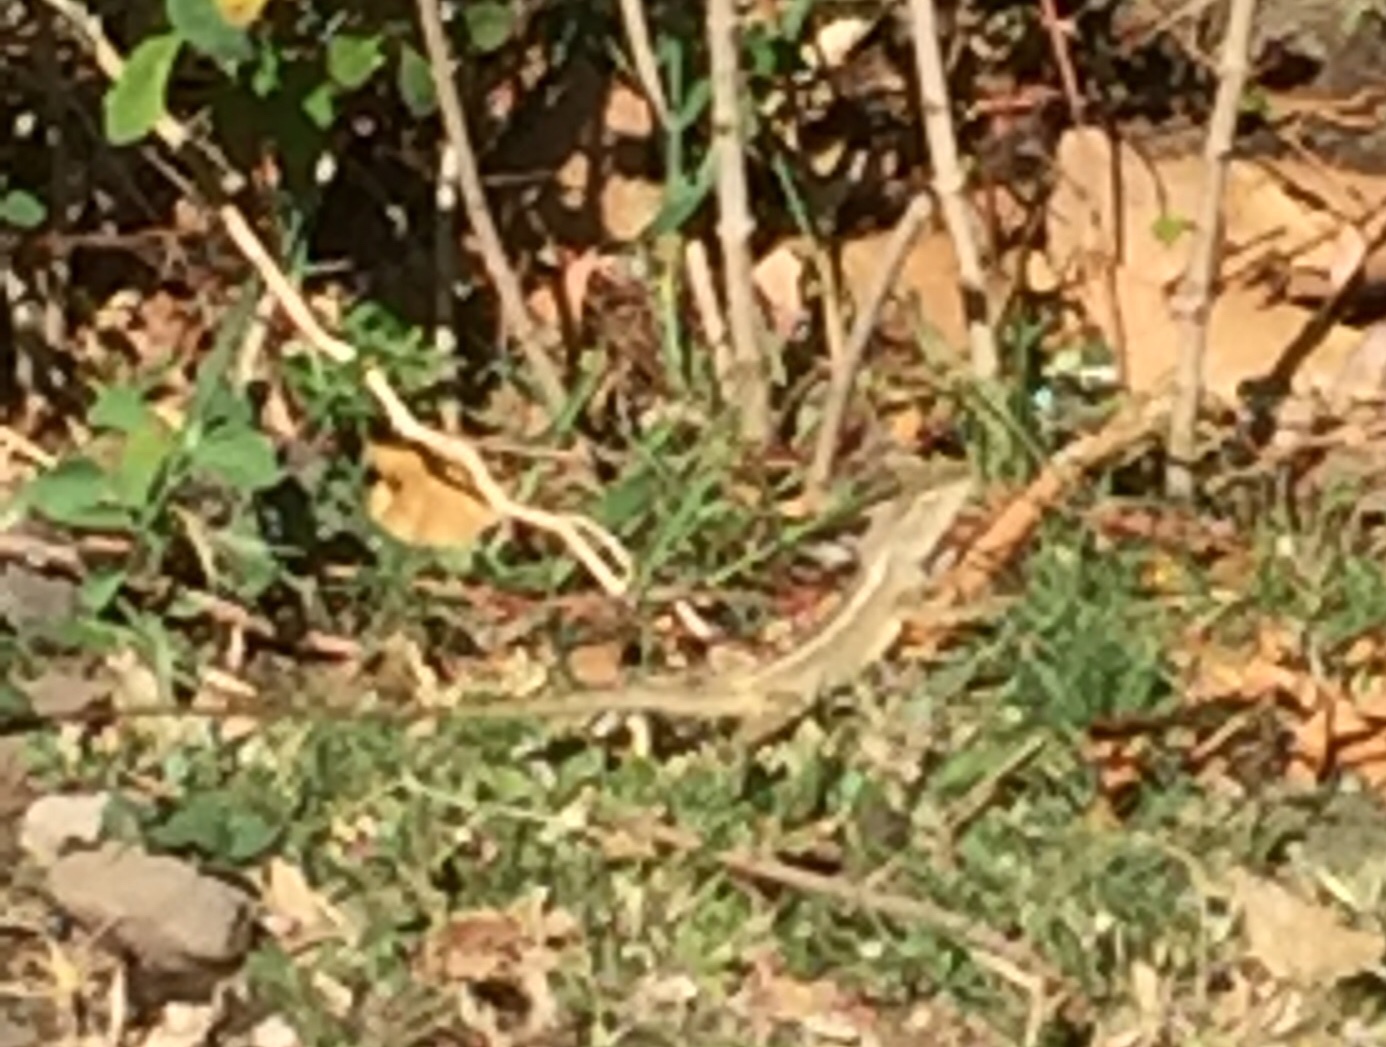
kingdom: Animalia
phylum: Chordata
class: Squamata
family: Agamidae
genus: Calotes
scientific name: Calotes versicolor
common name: Oriental garden lizard
